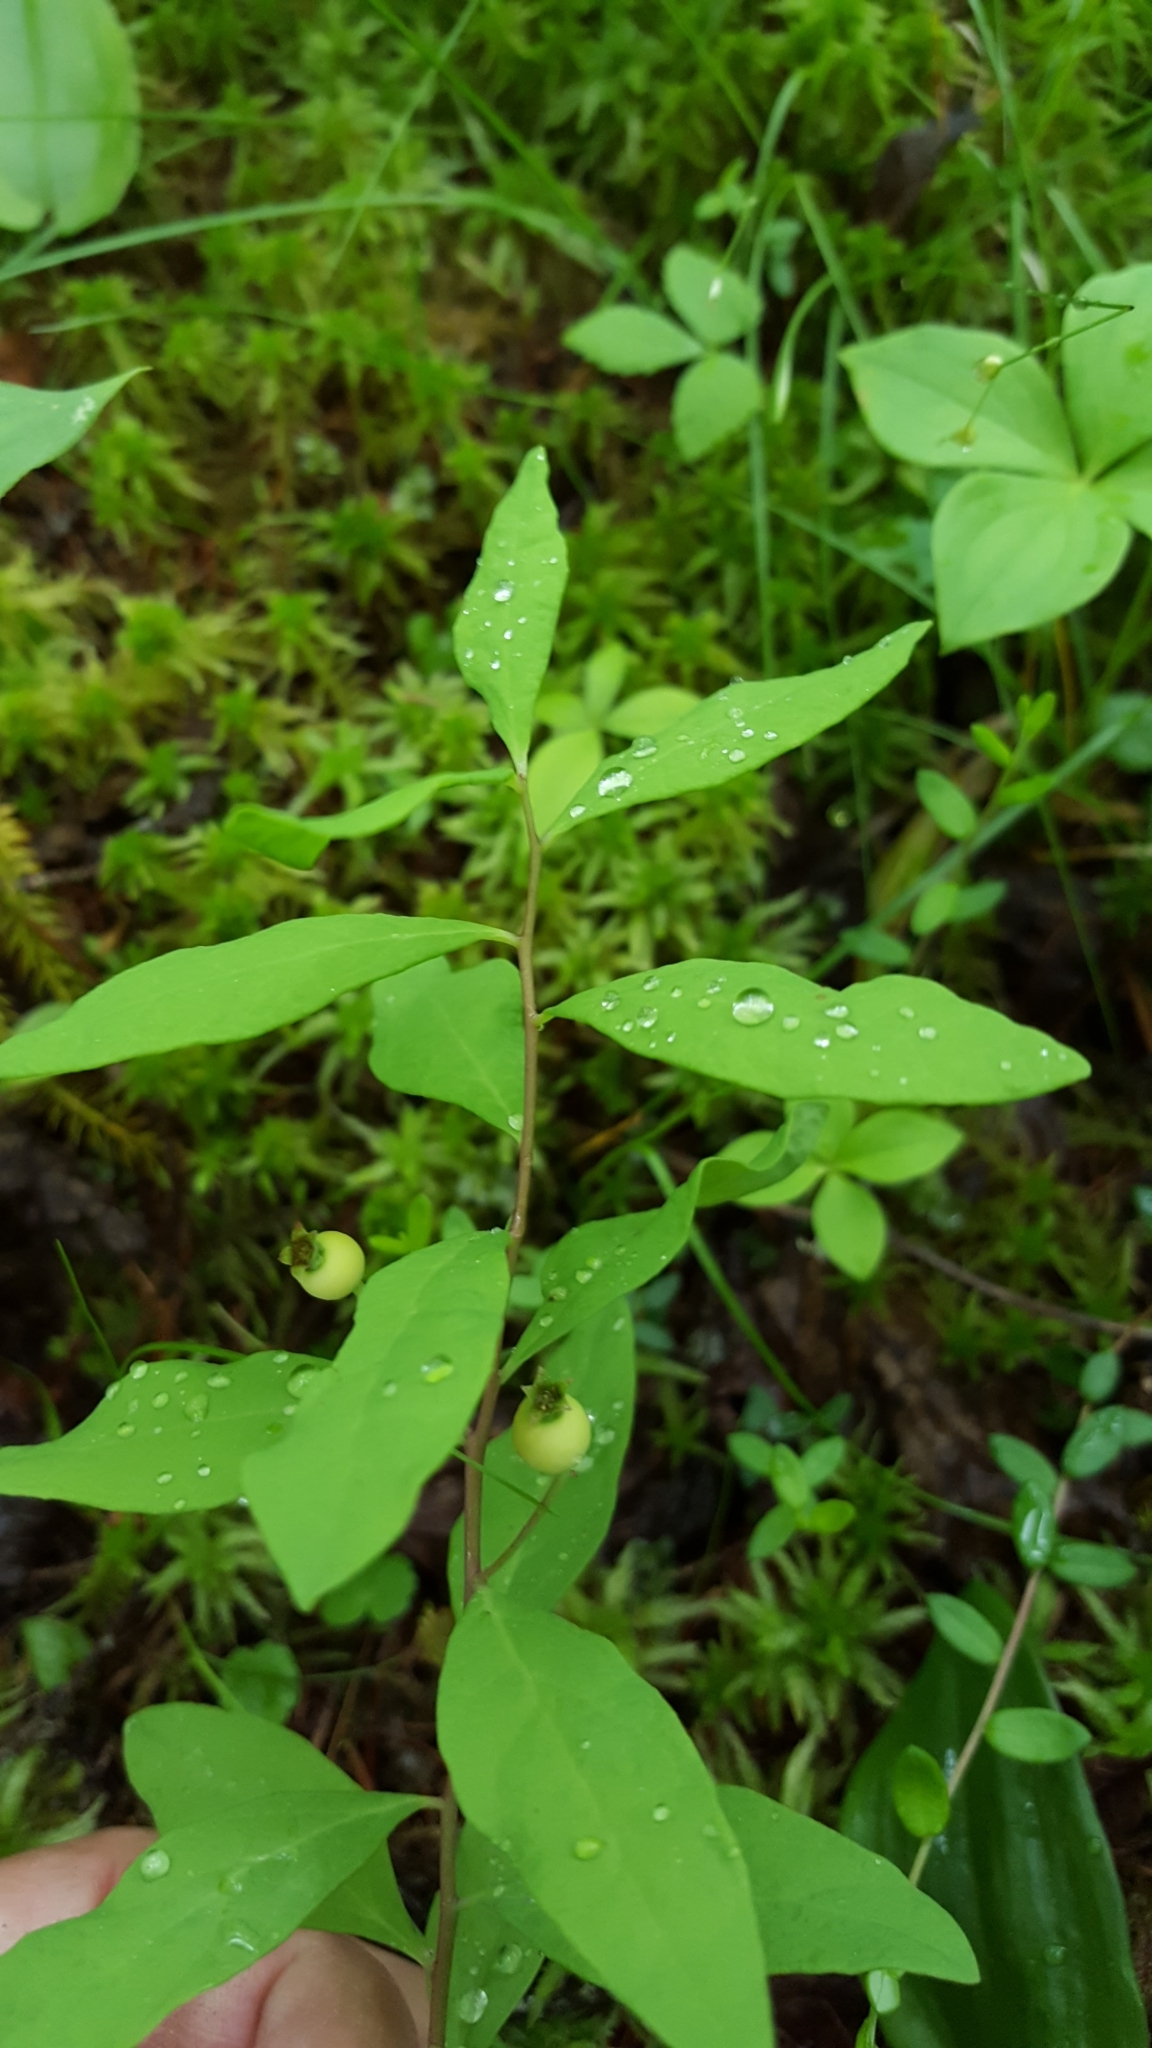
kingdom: Plantae
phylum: Tracheophyta
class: Magnoliopsida
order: Santalales
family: Comandraceae
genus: Geocaulon
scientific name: Geocaulon lividum
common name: Earthberry
